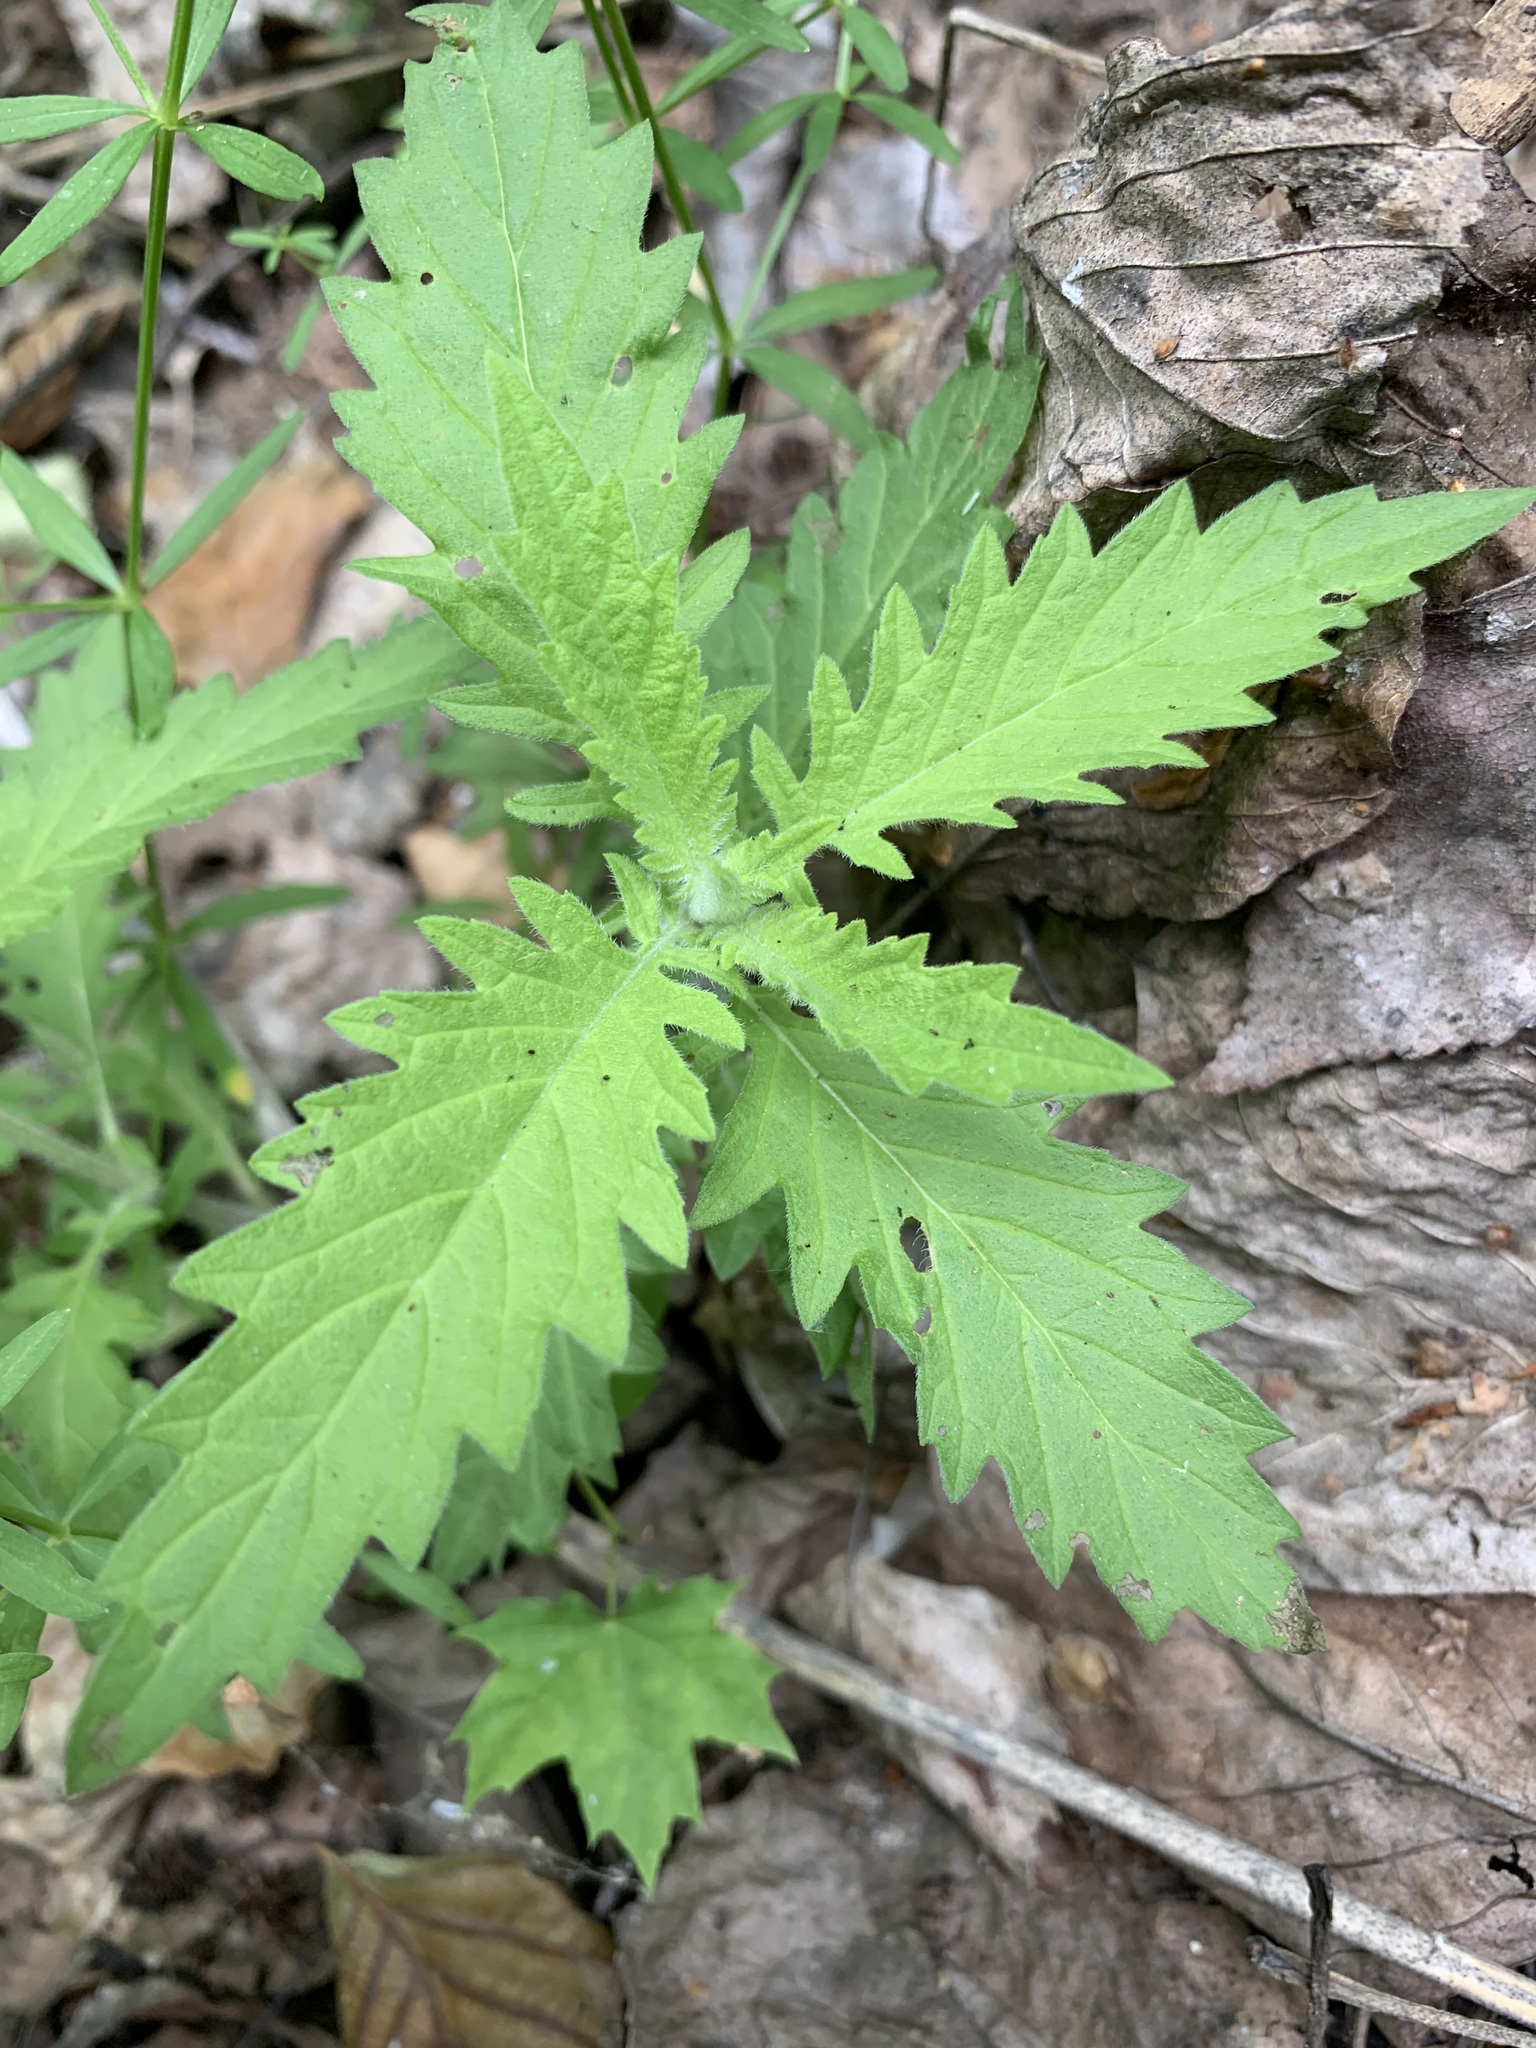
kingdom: Plantae
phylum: Tracheophyta
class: Magnoliopsida
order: Lamiales
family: Lamiaceae
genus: Lycopus
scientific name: Lycopus europaeus
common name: European bugleweed
